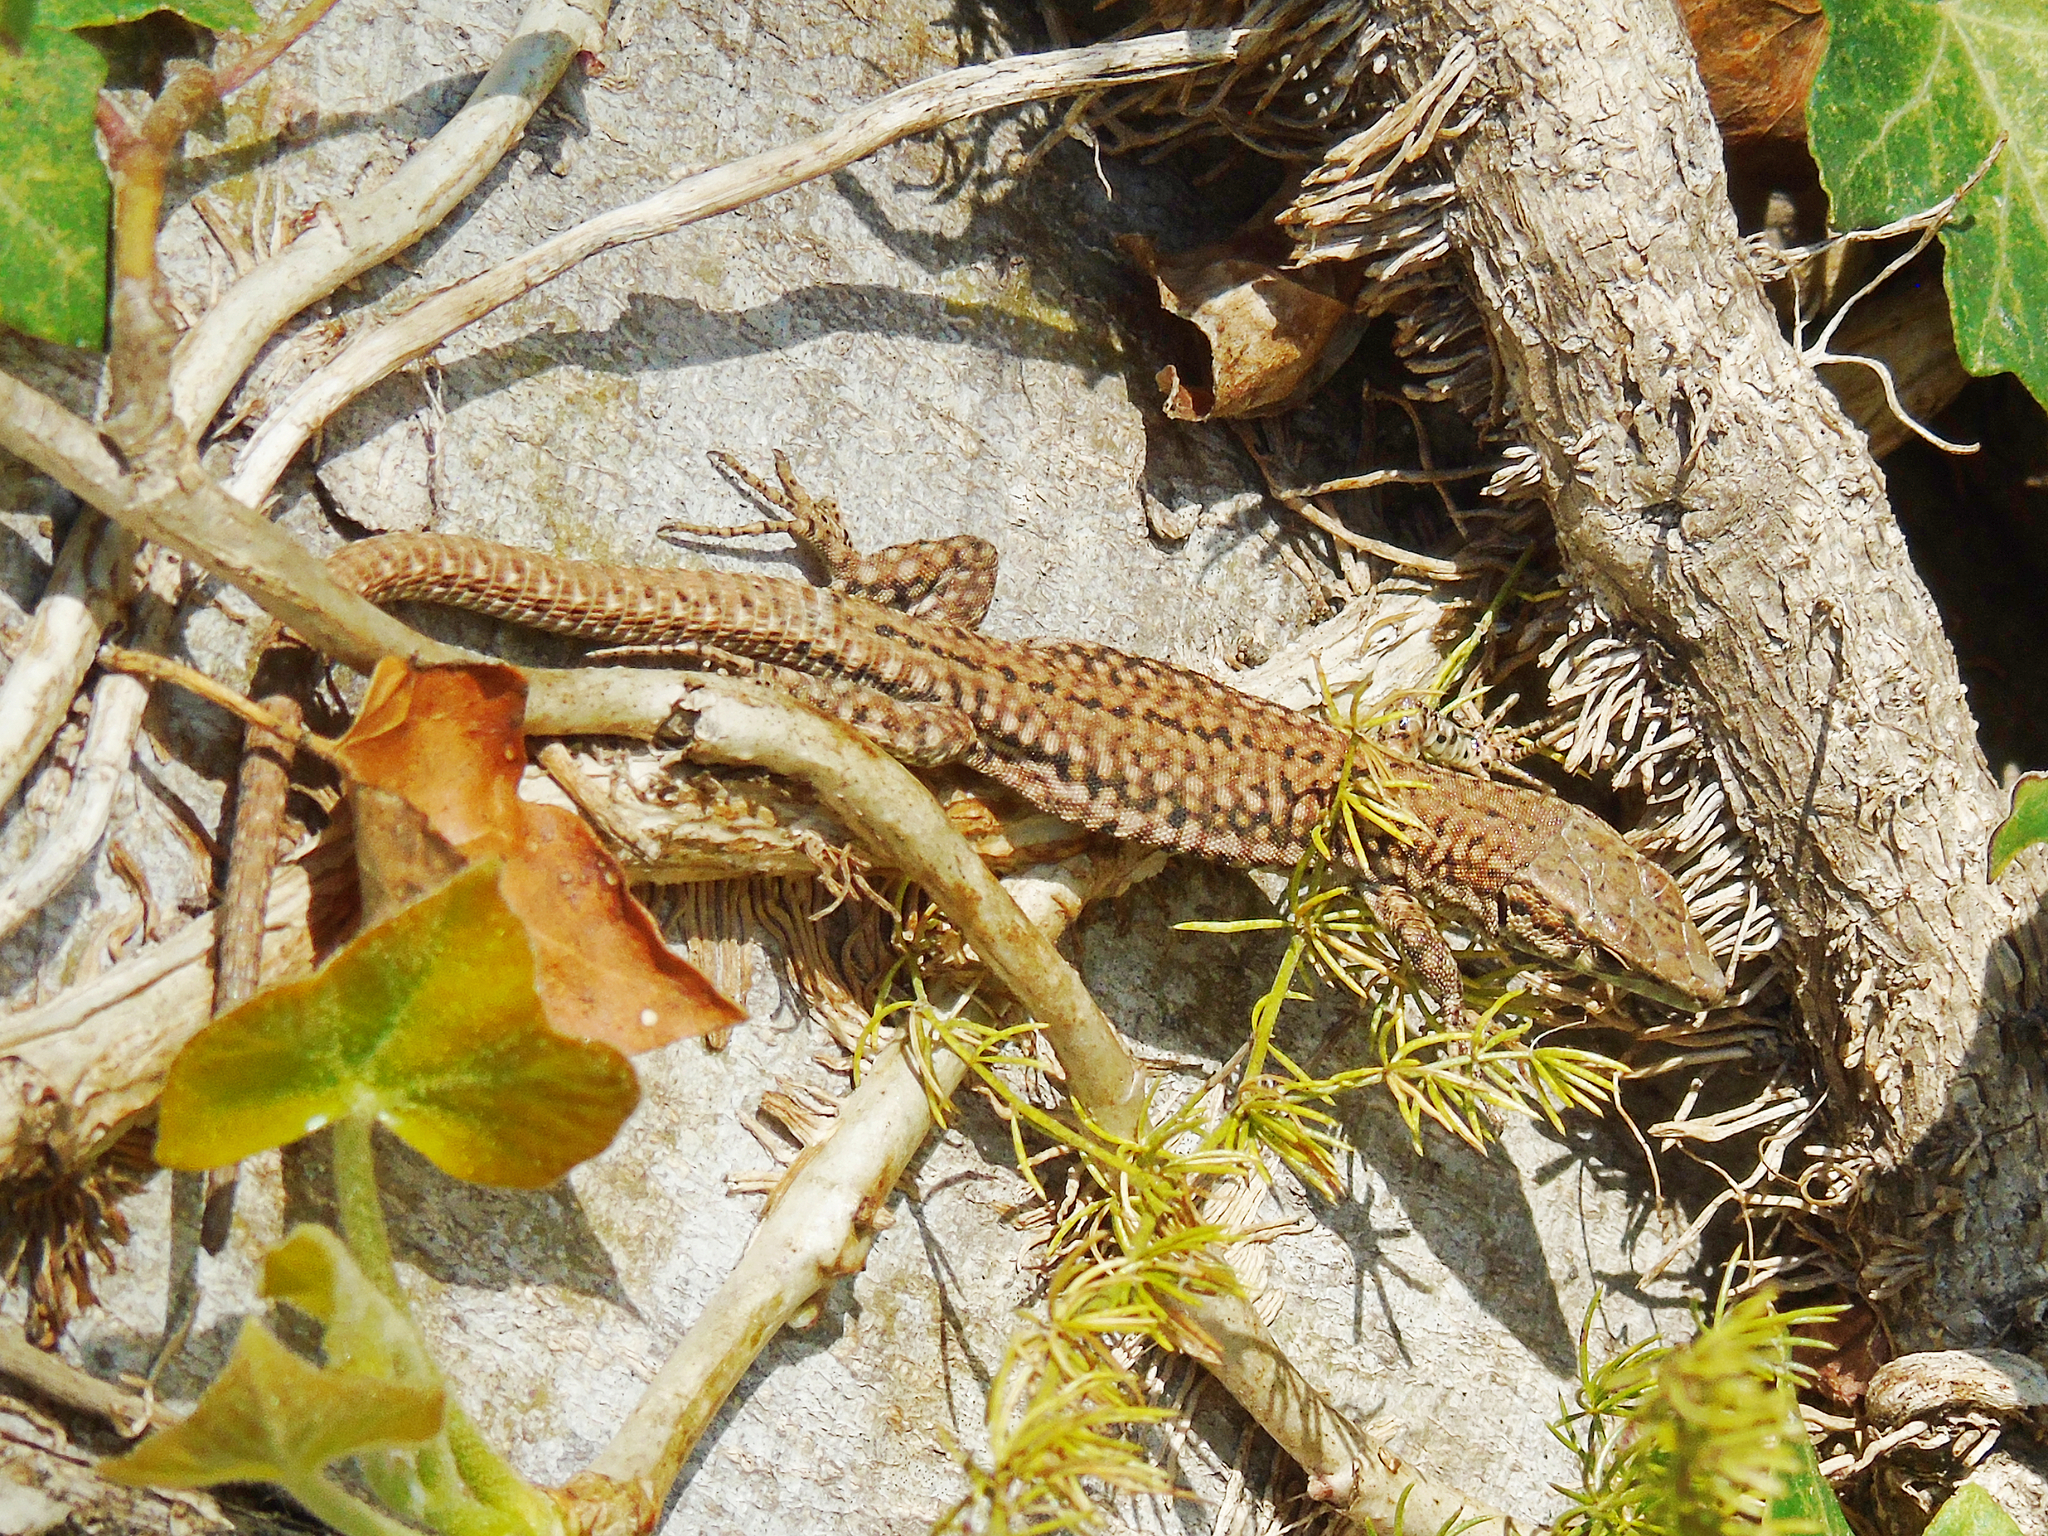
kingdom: Animalia
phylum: Chordata
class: Squamata
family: Lacertidae
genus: Podarcis
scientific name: Podarcis liolepis
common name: Catalonian wall lizard
